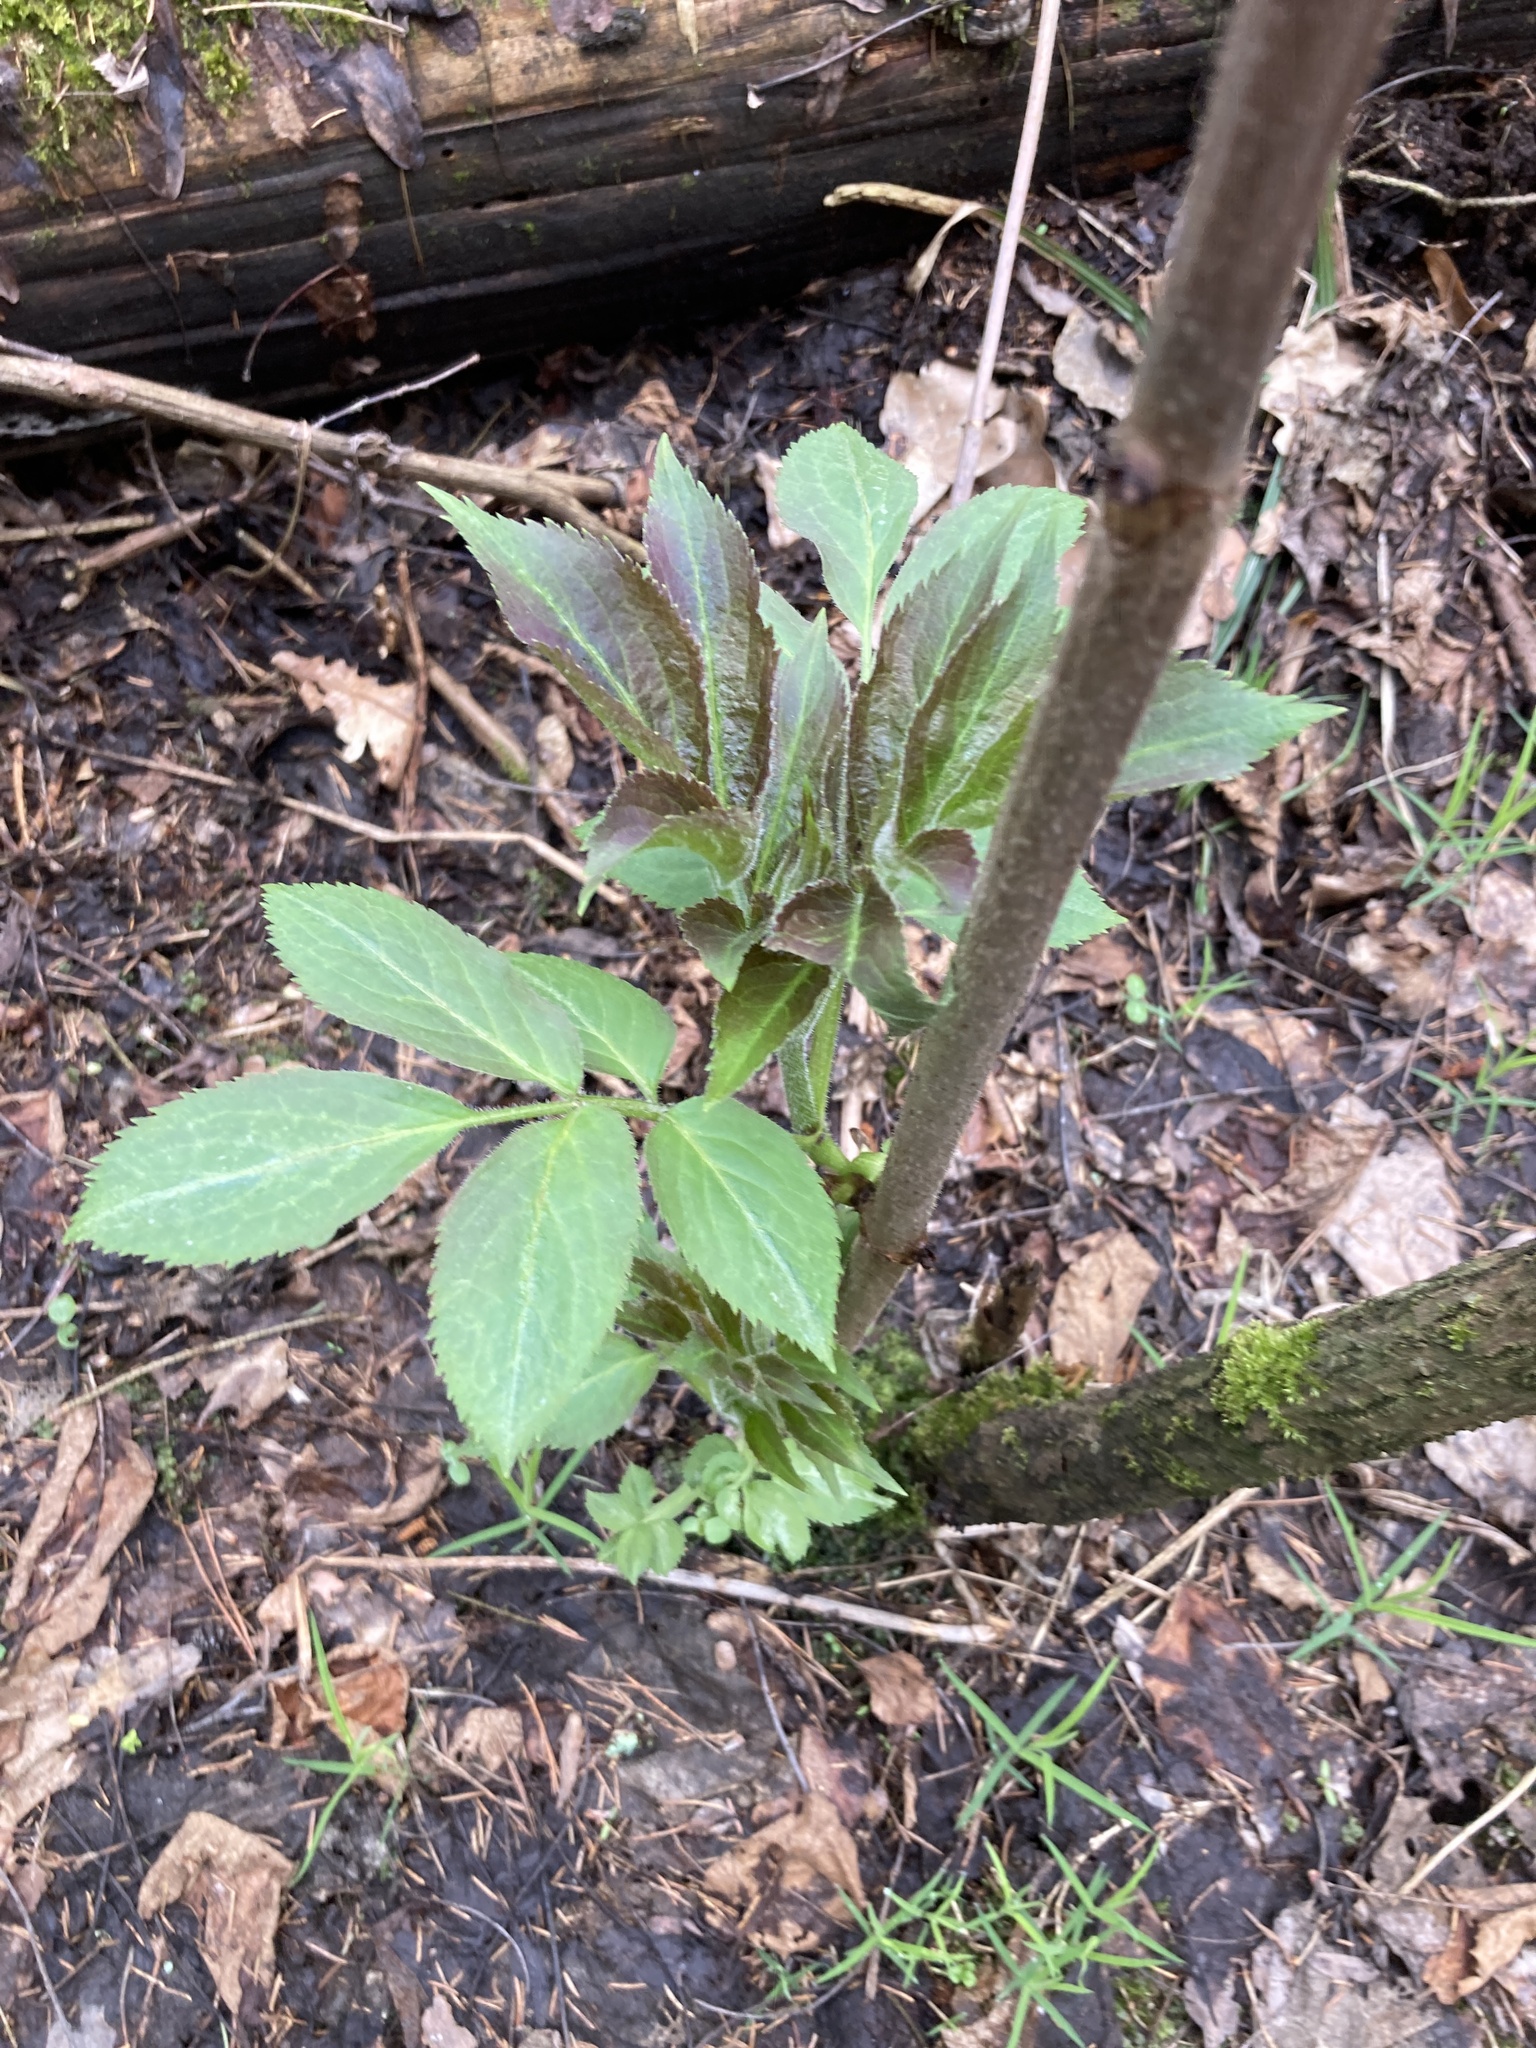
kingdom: Plantae
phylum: Tracheophyta
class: Magnoliopsida
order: Dipsacales
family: Viburnaceae
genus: Sambucus
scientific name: Sambucus racemosa
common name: Red-berried elder
